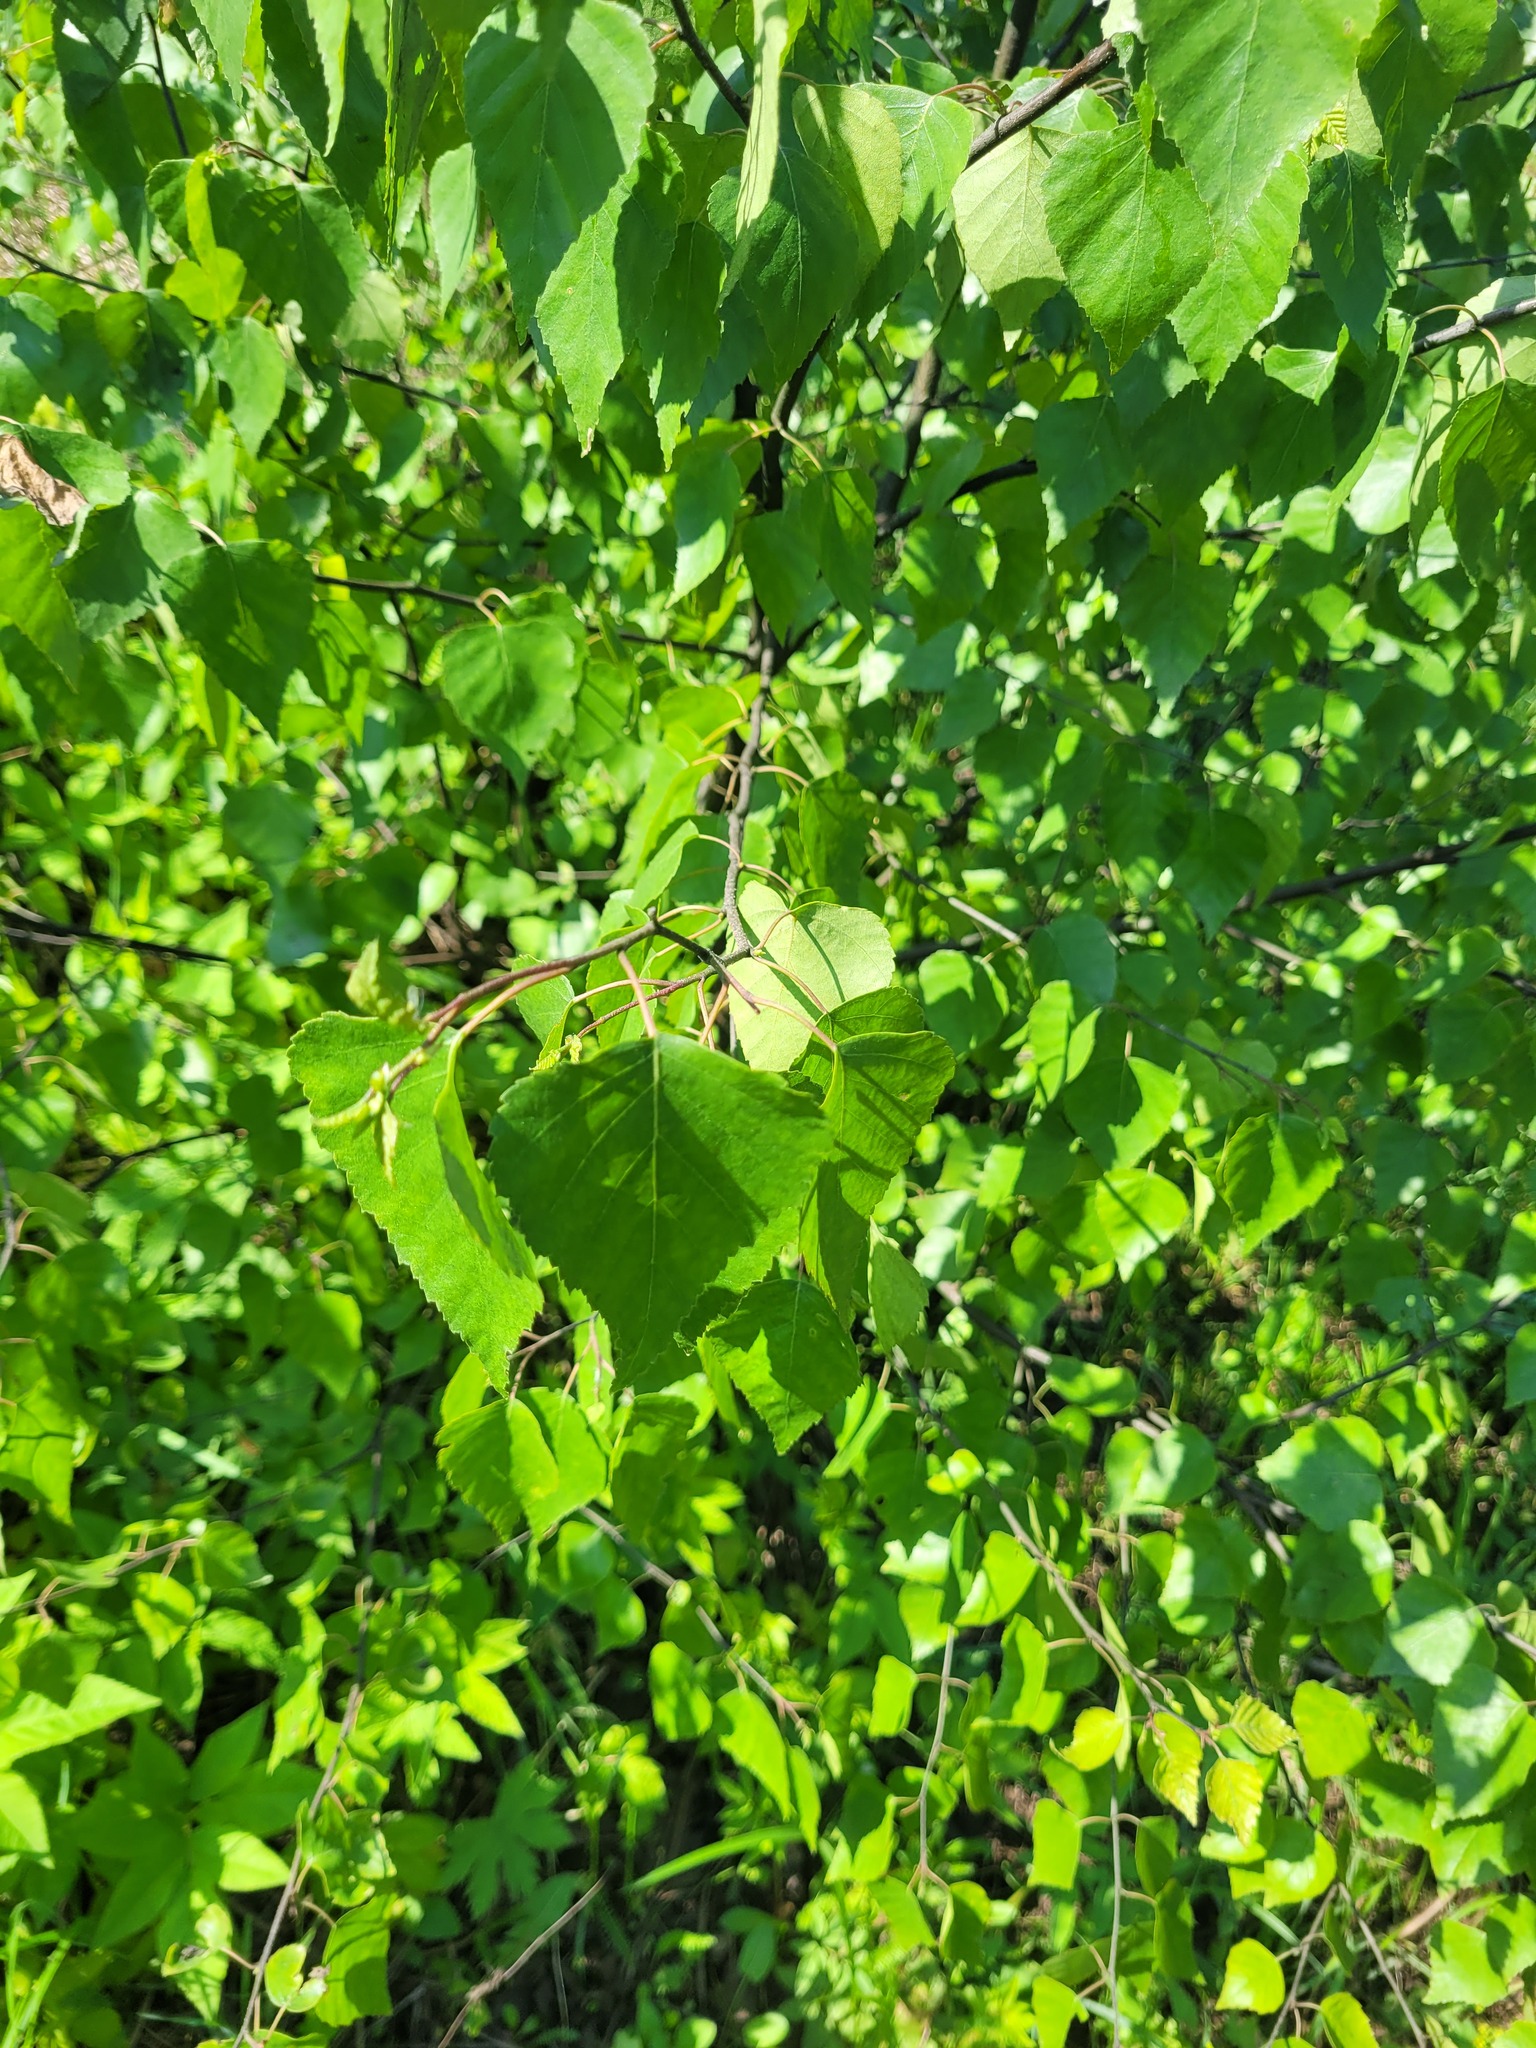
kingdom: Plantae
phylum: Tracheophyta
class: Magnoliopsida
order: Fagales
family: Betulaceae
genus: Betula
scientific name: Betula pendula
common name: Silver birch
